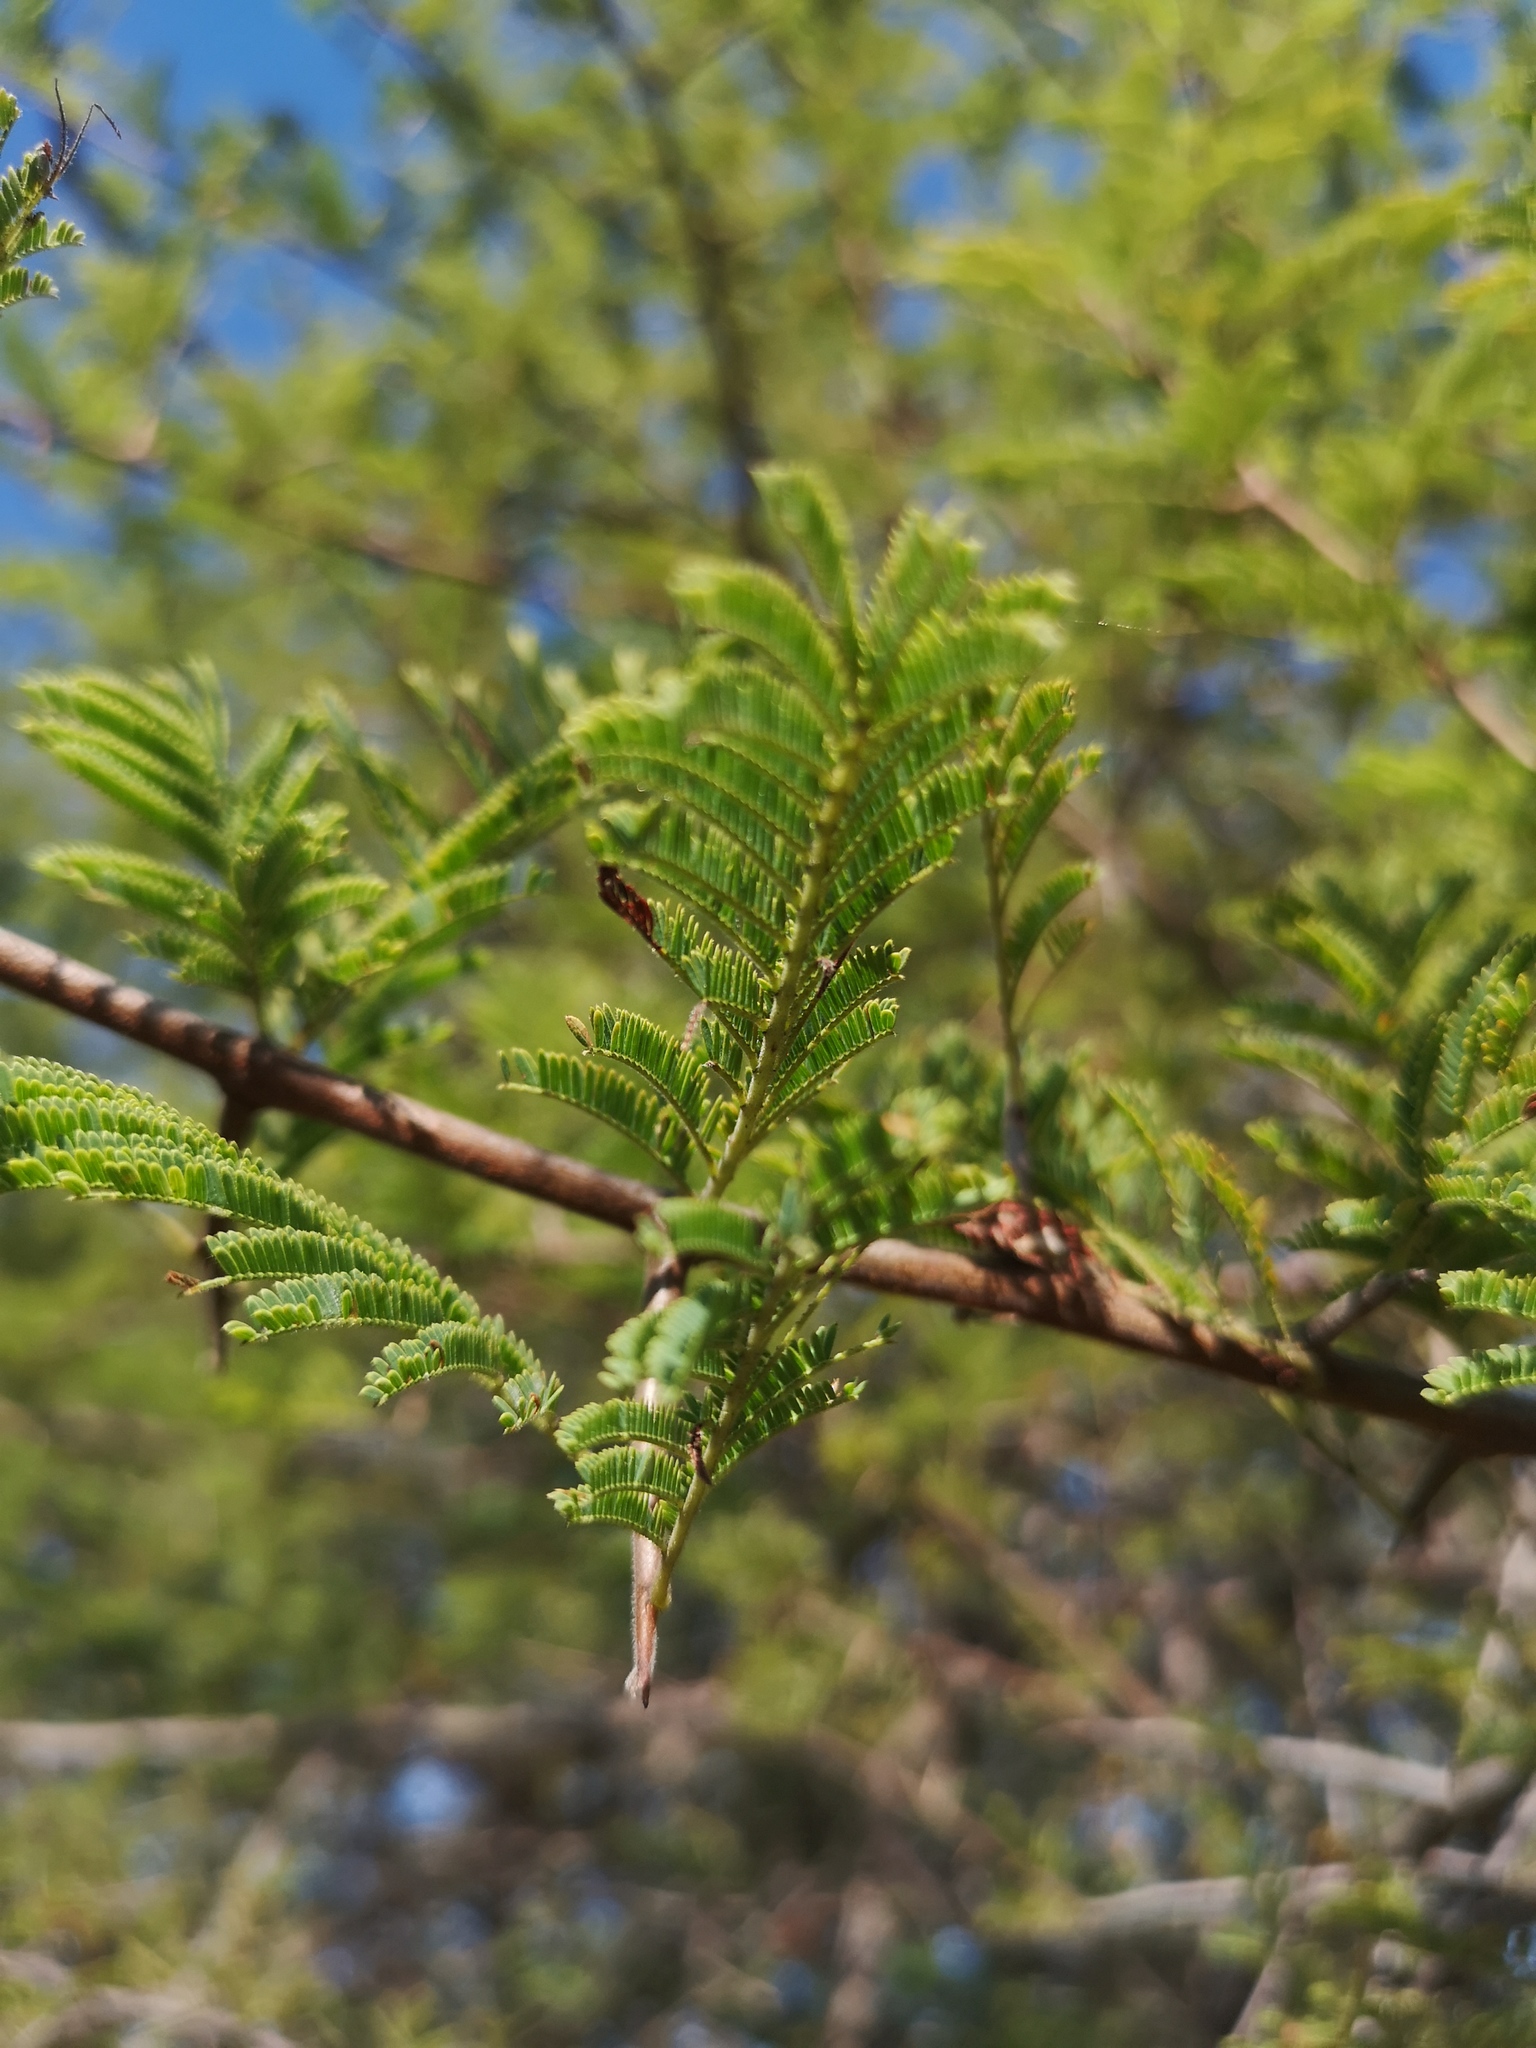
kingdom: Plantae
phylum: Tracheophyta
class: Magnoliopsida
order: Fabales
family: Fabaceae
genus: Dichrostachys
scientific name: Dichrostachys cinerea
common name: Sicklebush
